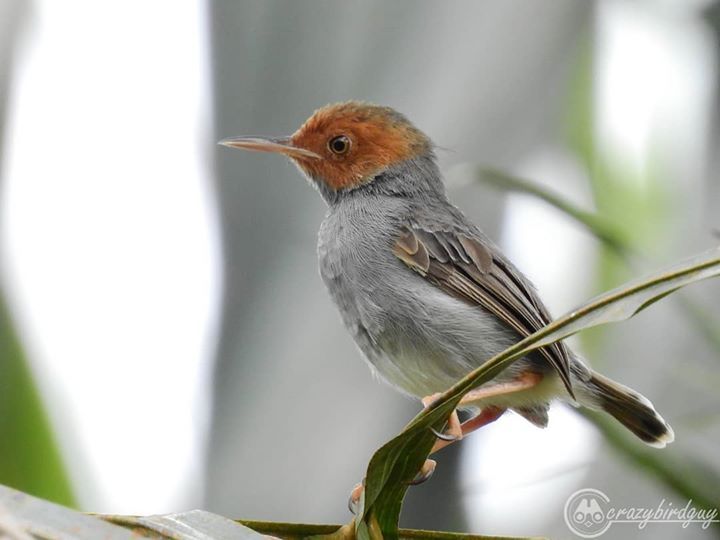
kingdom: Animalia
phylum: Chordata
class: Aves
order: Passeriformes
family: Cisticolidae
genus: Orthotomus
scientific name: Orthotomus ruficeps
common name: Ashy tailorbird
